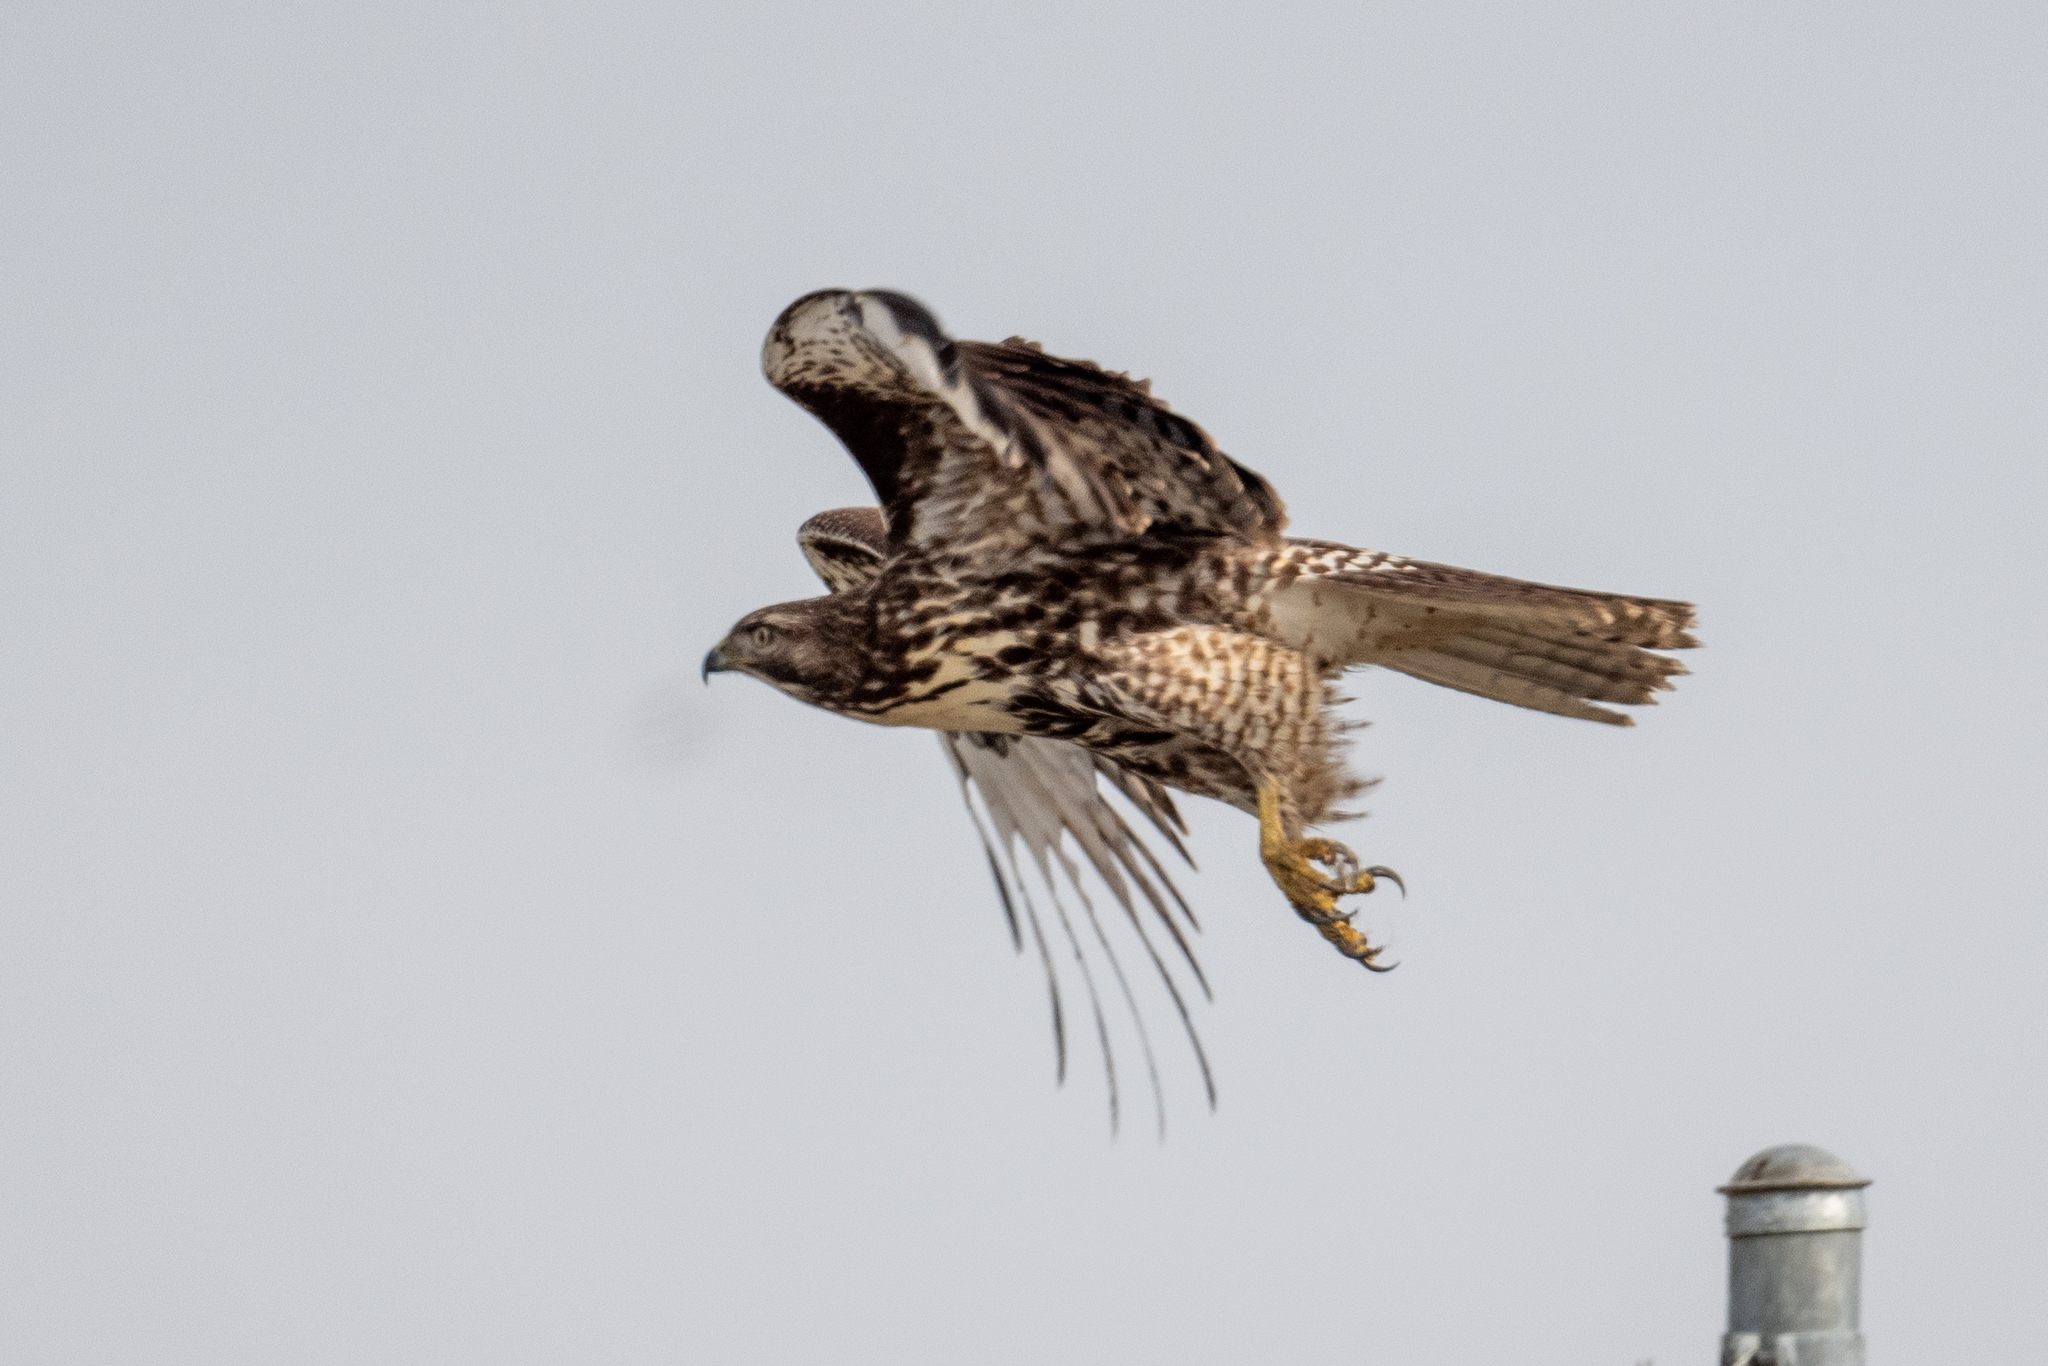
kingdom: Animalia
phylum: Chordata
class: Aves
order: Accipitriformes
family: Accipitridae
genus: Buteo
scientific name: Buteo jamaicensis
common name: Red-tailed hawk
